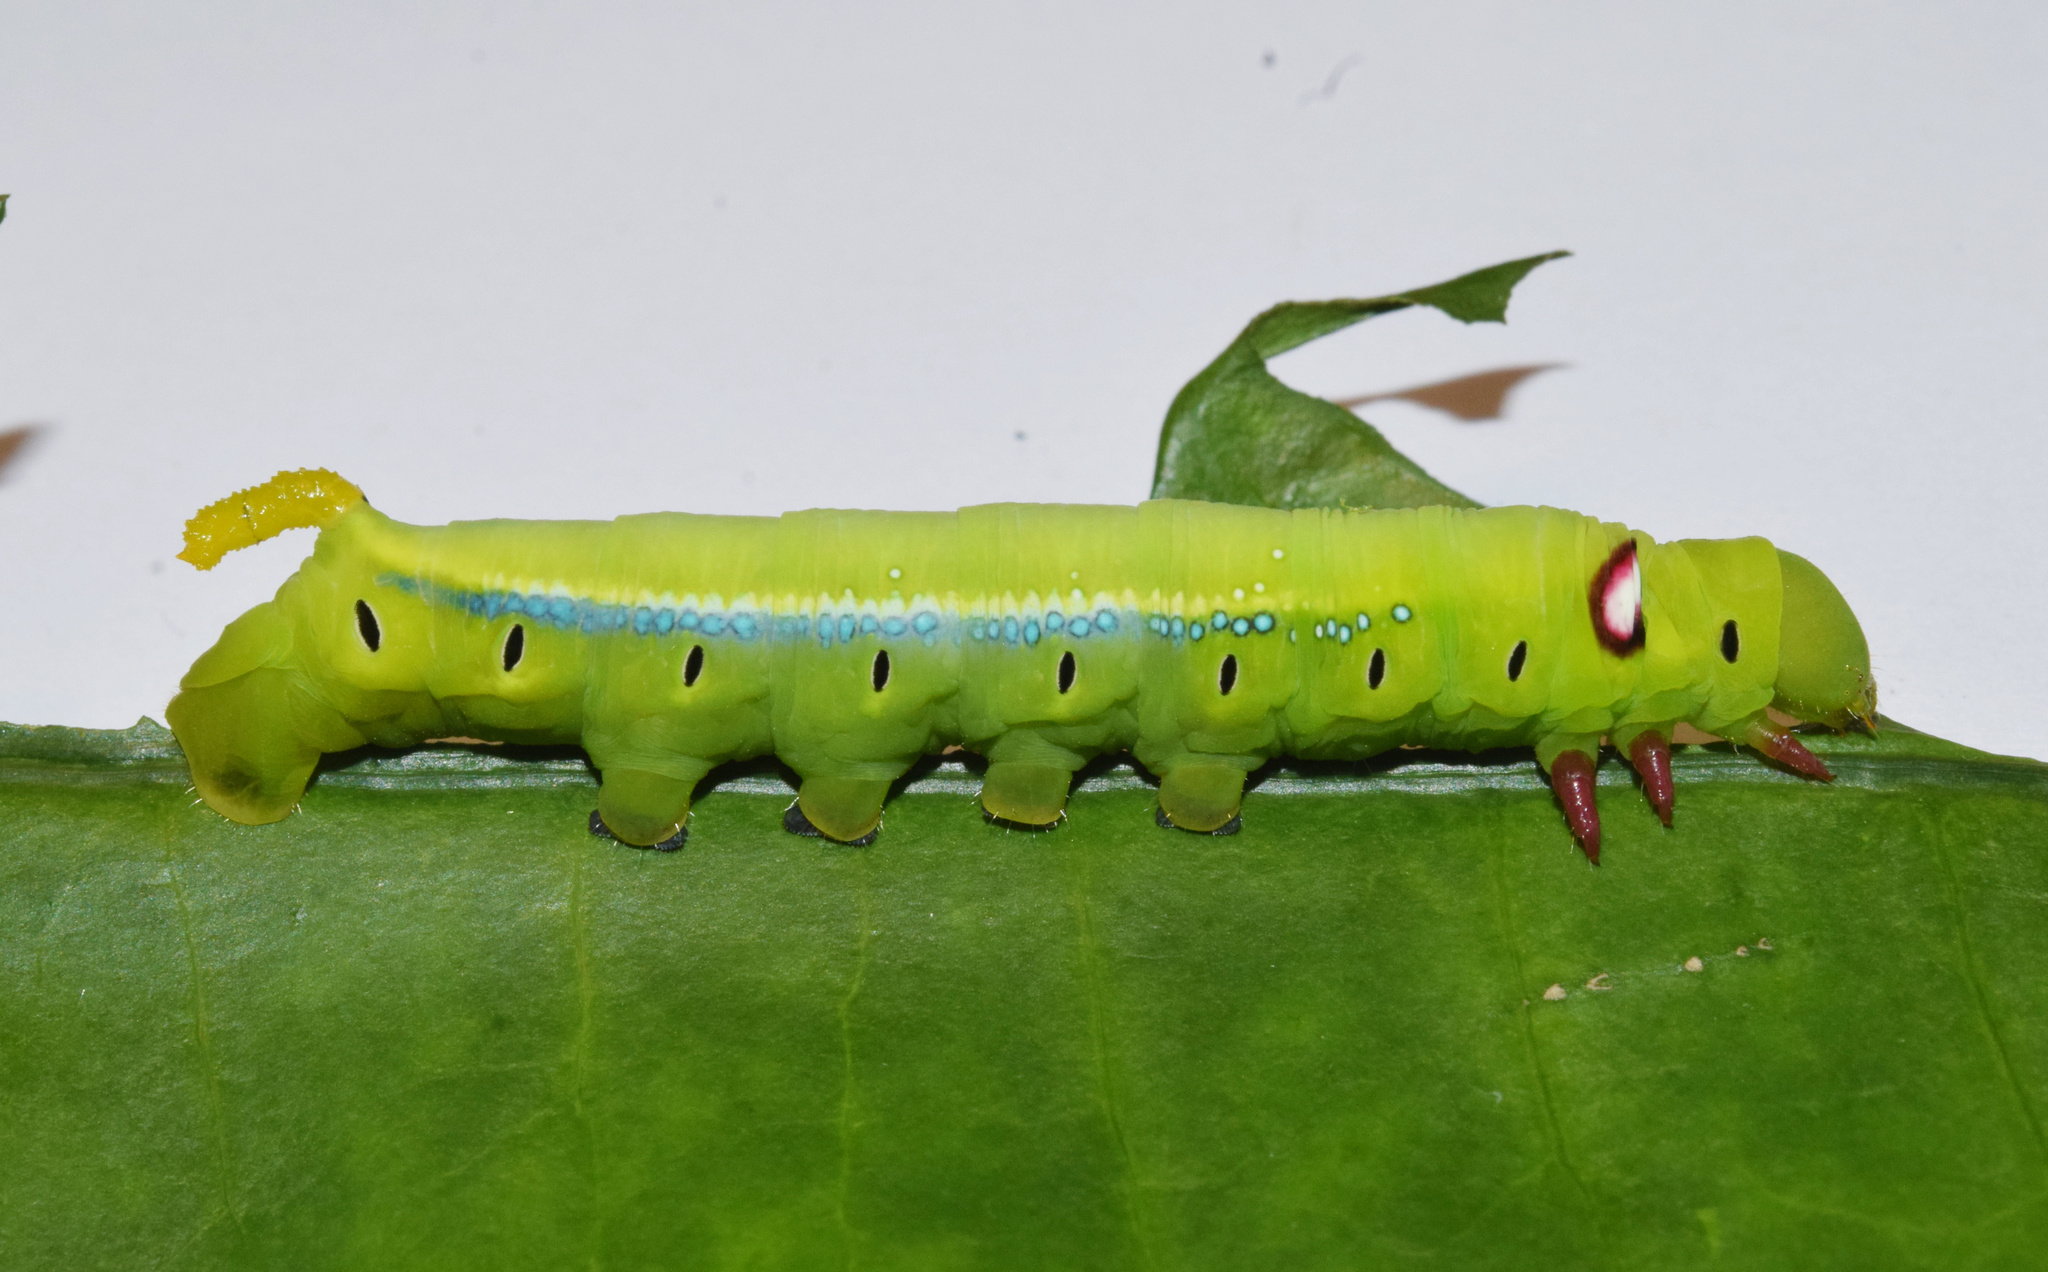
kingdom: Animalia
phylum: Arthropoda
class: Insecta
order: Lepidoptera
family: Sphingidae
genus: Daphnis
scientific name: Daphnis nerii
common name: Oleander hawk-moth
